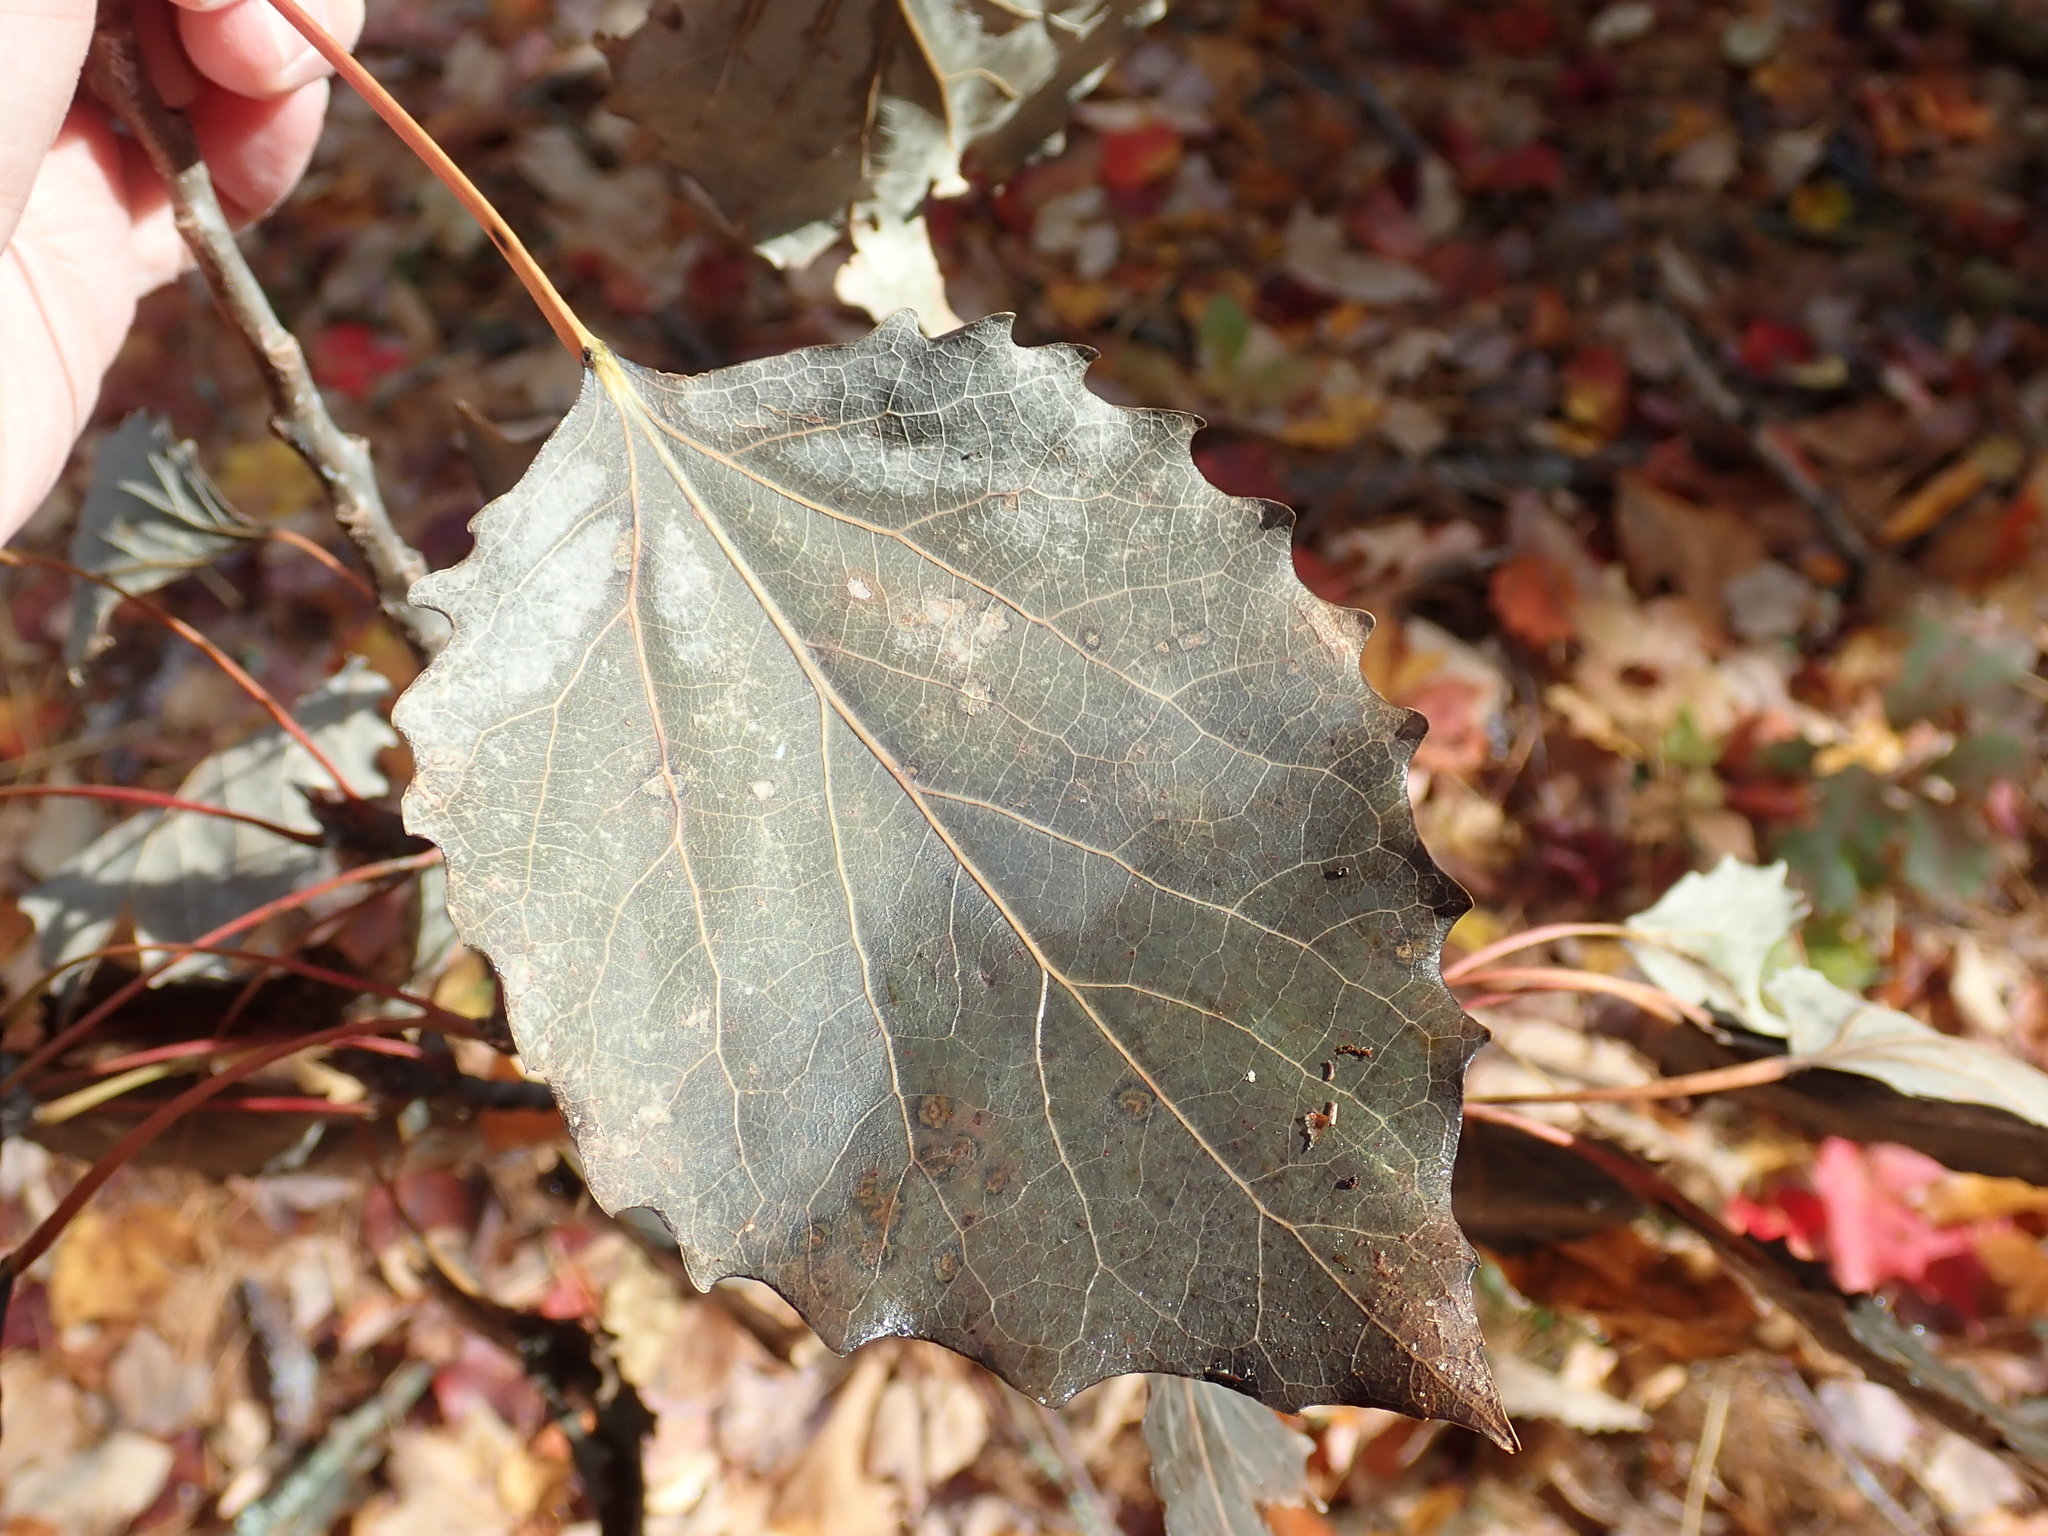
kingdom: Plantae
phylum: Tracheophyta
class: Magnoliopsida
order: Malpighiales
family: Salicaceae
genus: Populus
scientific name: Populus grandidentata
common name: Bigtooth aspen
